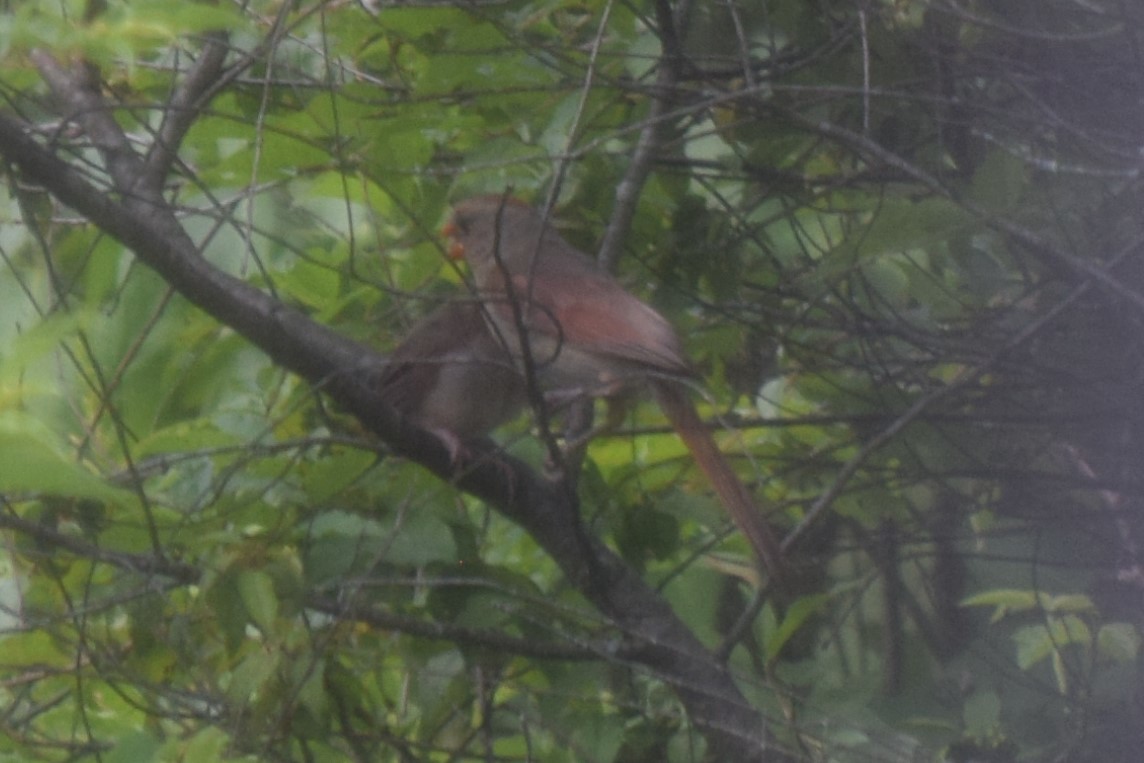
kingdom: Animalia
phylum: Chordata
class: Aves
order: Passeriformes
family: Cardinalidae
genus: Cardinalis
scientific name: Cardinalis cardinalis
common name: Northern cardinal
